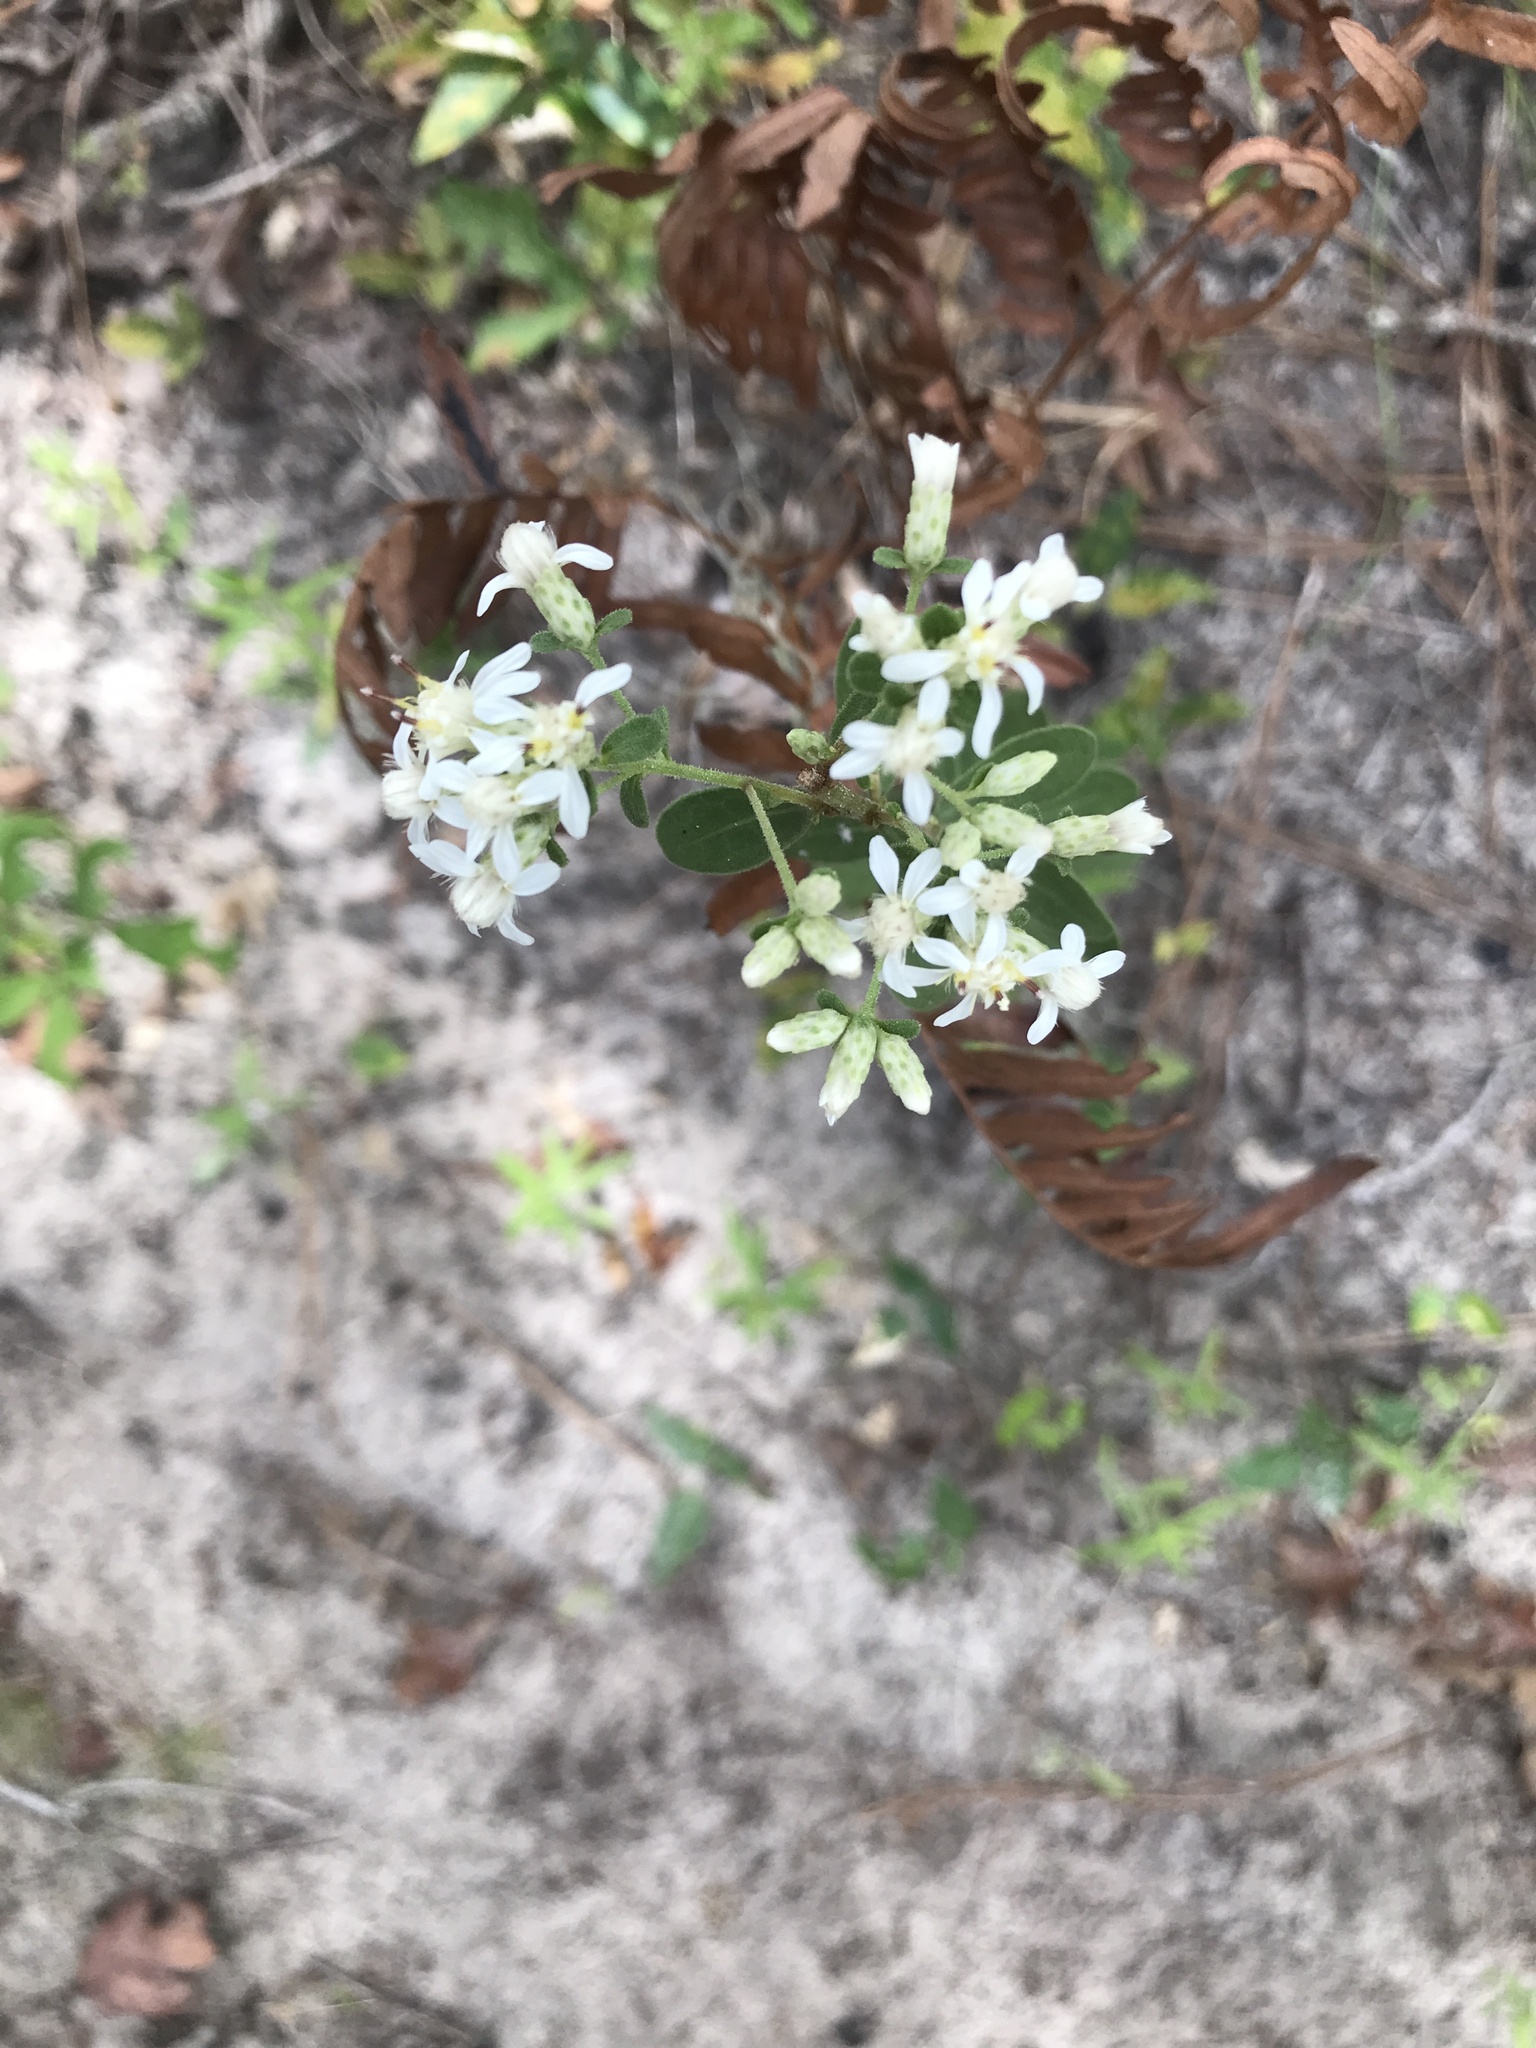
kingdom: Plantae
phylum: Tracheophyta
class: Magnoliopsida
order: Asterales
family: Asteraceae
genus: Sericocarpus
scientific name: Sericocarpus tortifolius
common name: Dixie aster
